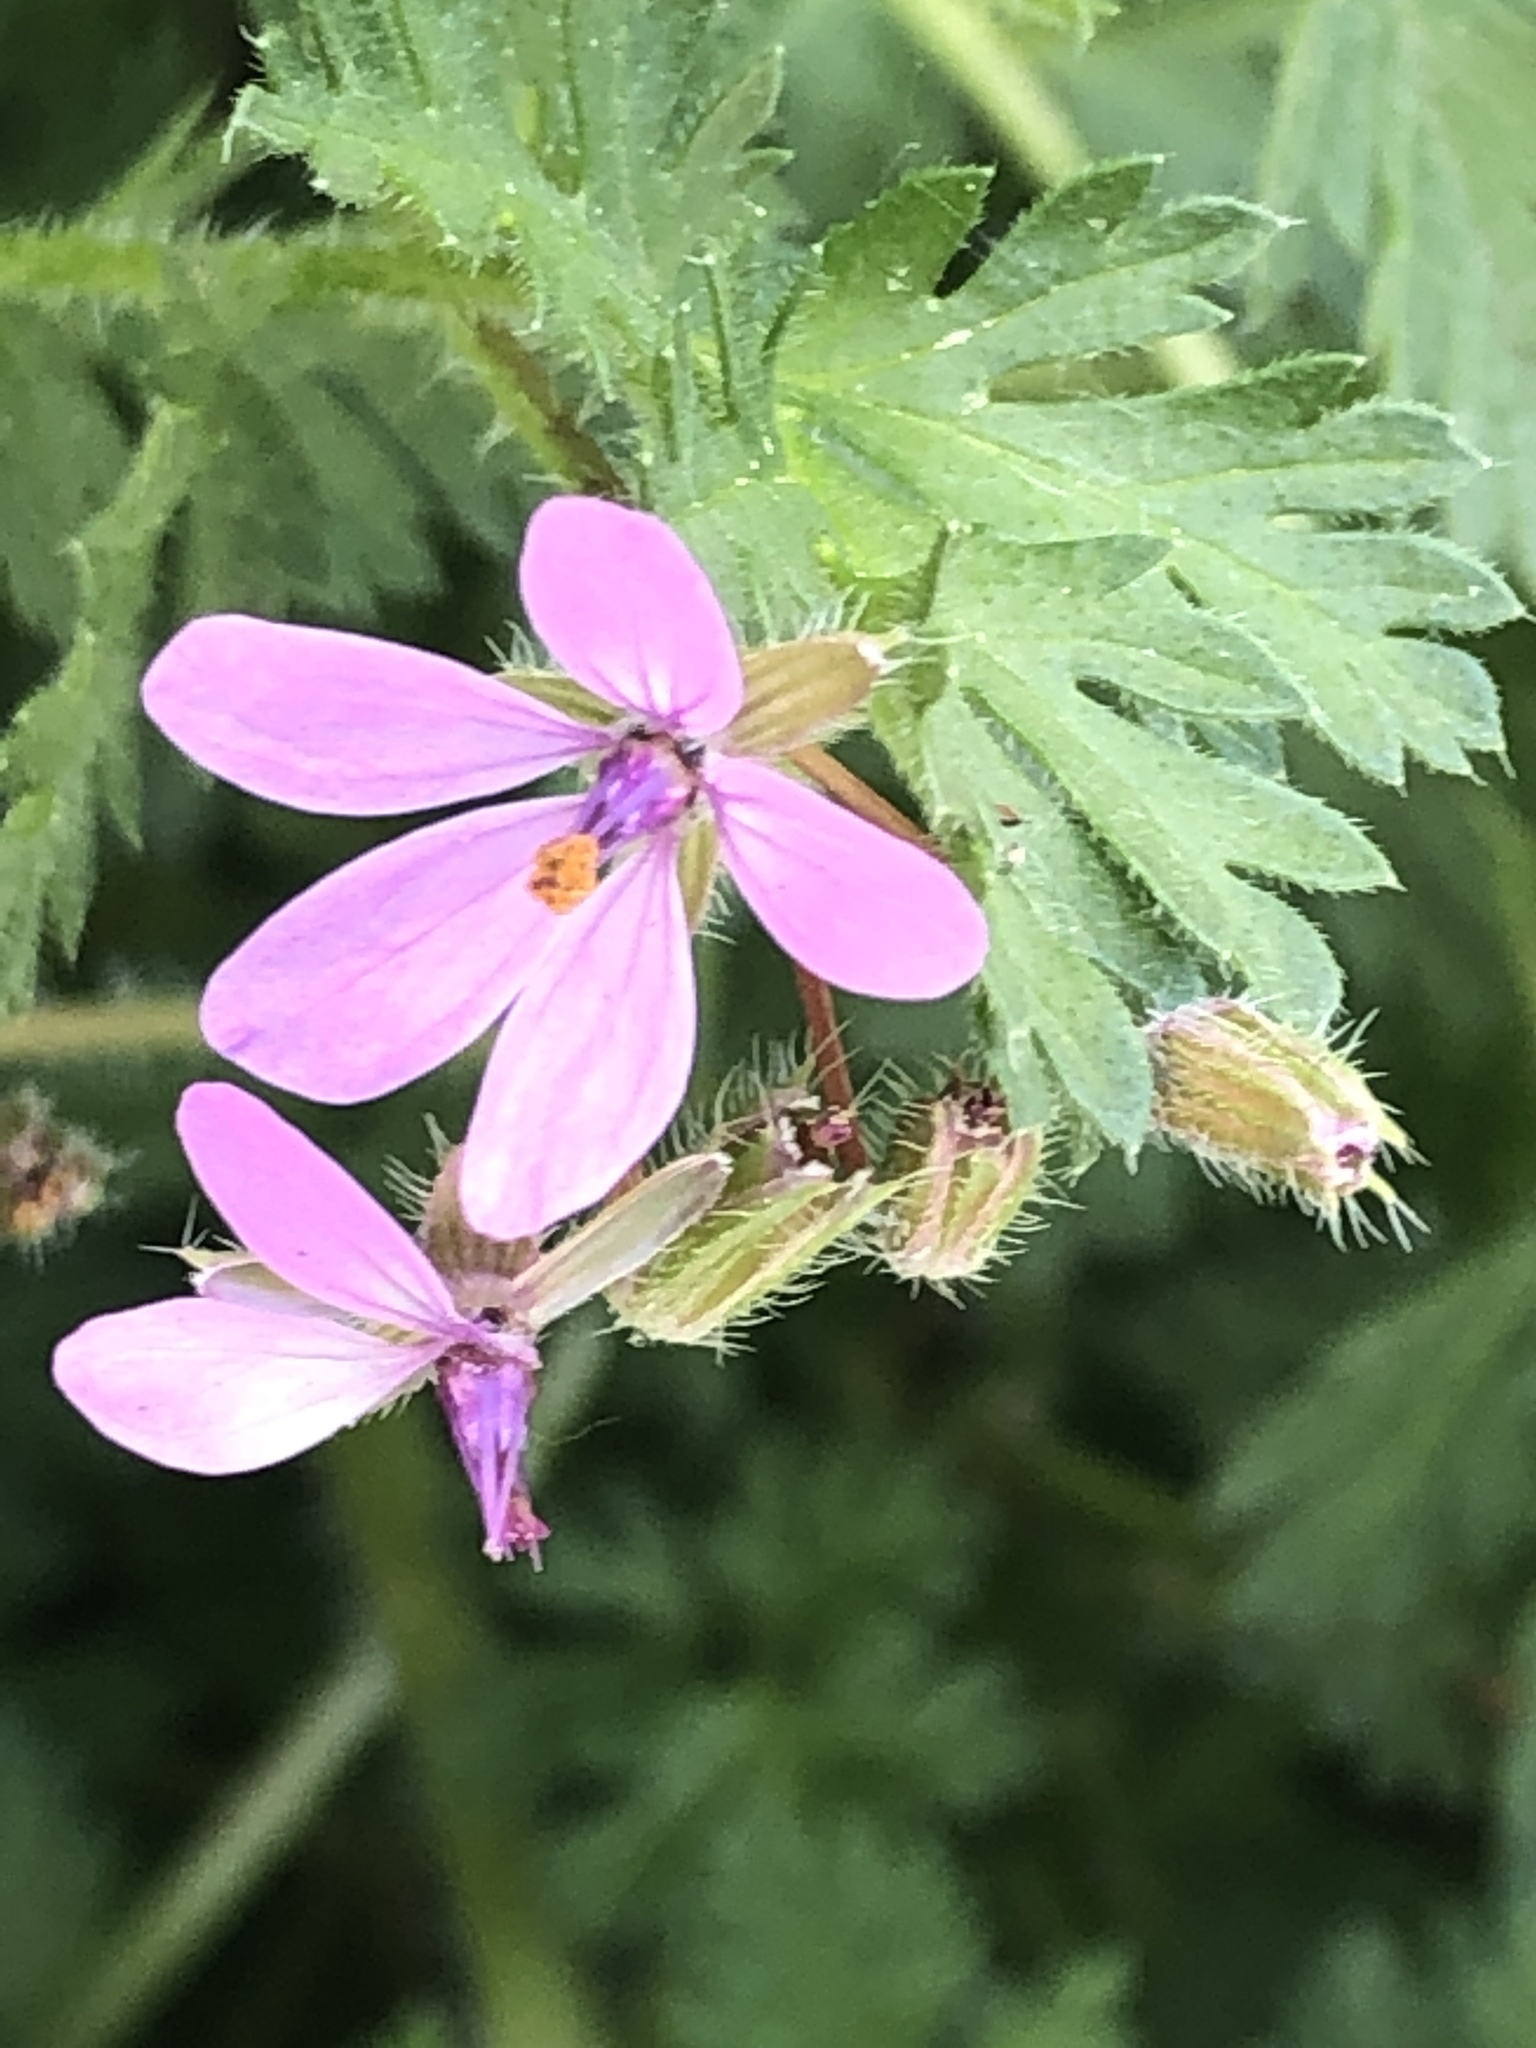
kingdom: Plantae
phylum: Tracheophyta
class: Magnoliopsida
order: Geraniales
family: Geraniaceae
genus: Erodium
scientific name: Erodium cicutarium
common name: Common stork's-bill
